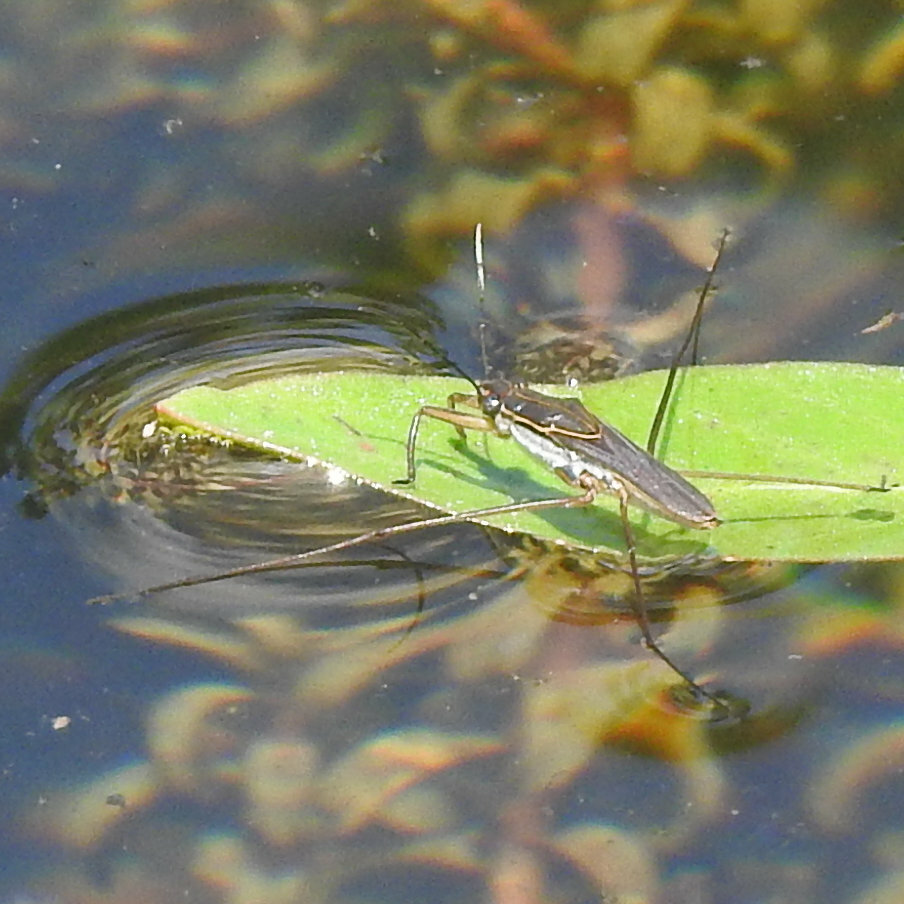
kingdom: Animalia
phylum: Arthropoda
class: Insecta
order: Hemiptera
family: Gerridae
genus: Limnogonoides
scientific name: Limnogonoides
